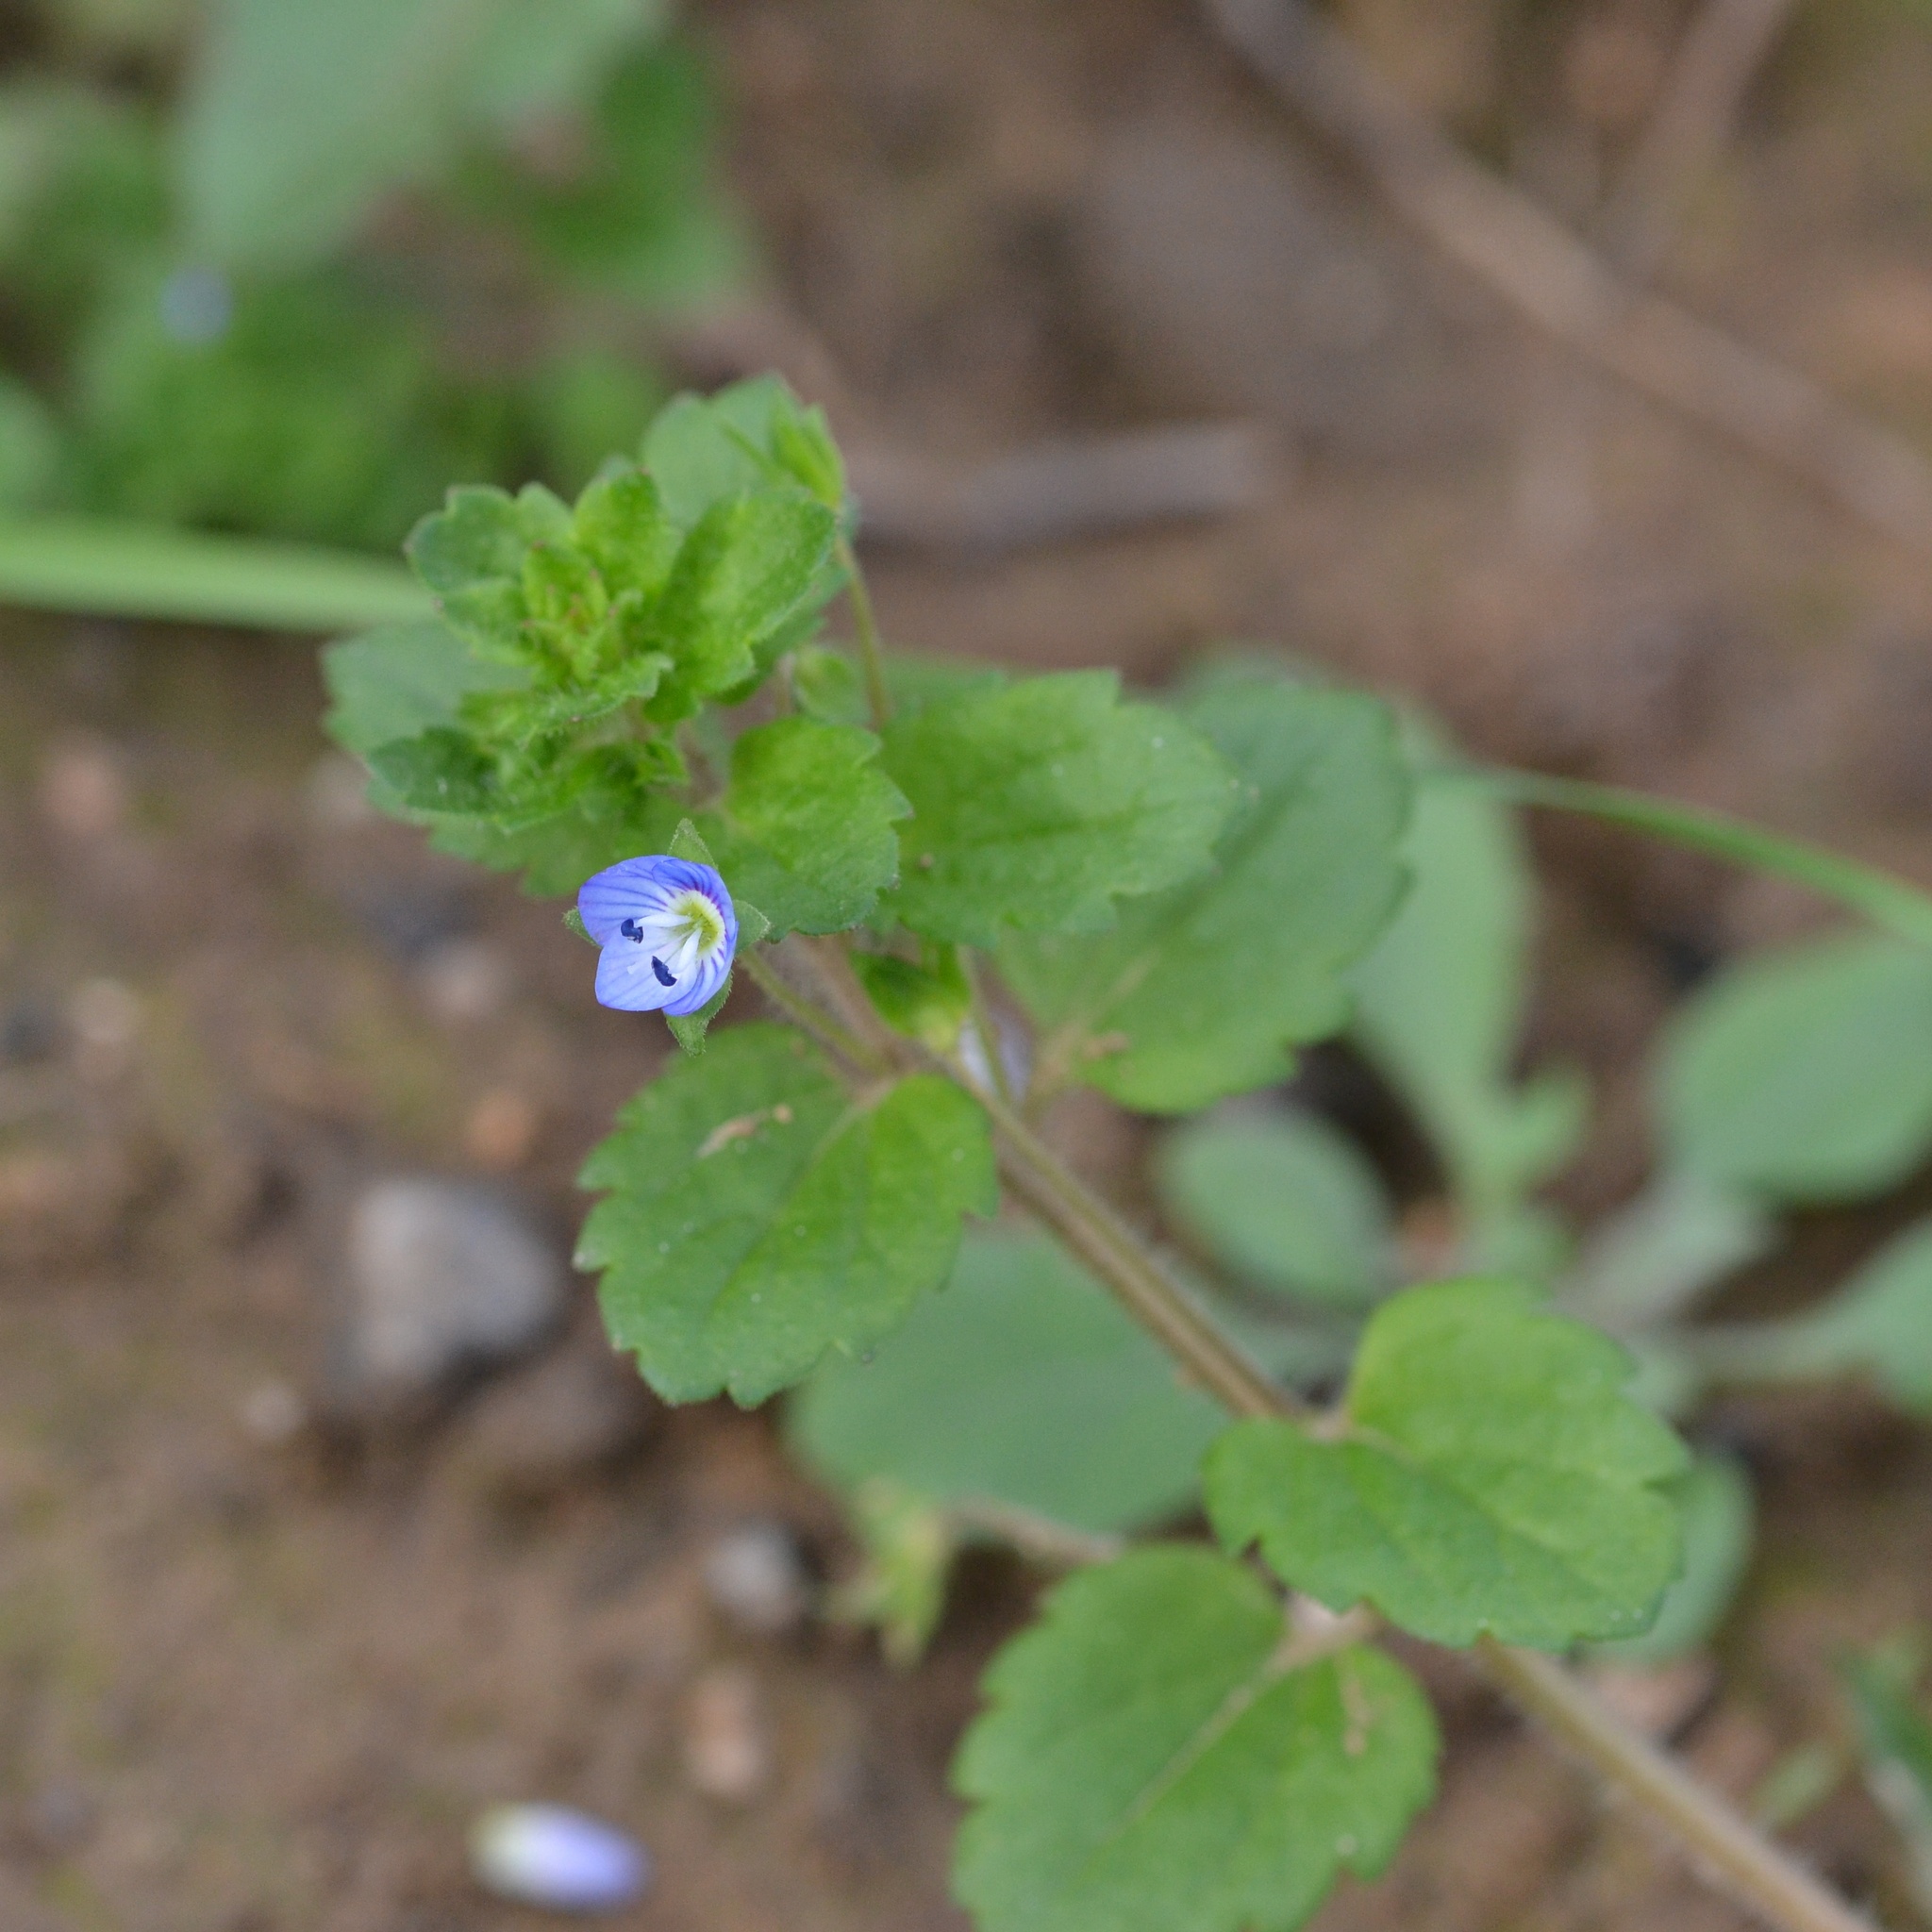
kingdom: Plantae
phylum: Tracheophyta
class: Magnoliopsida
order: Lamiales
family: Plantaginaceae
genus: Veronica
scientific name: Veronica persica
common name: Common field-speedwell
